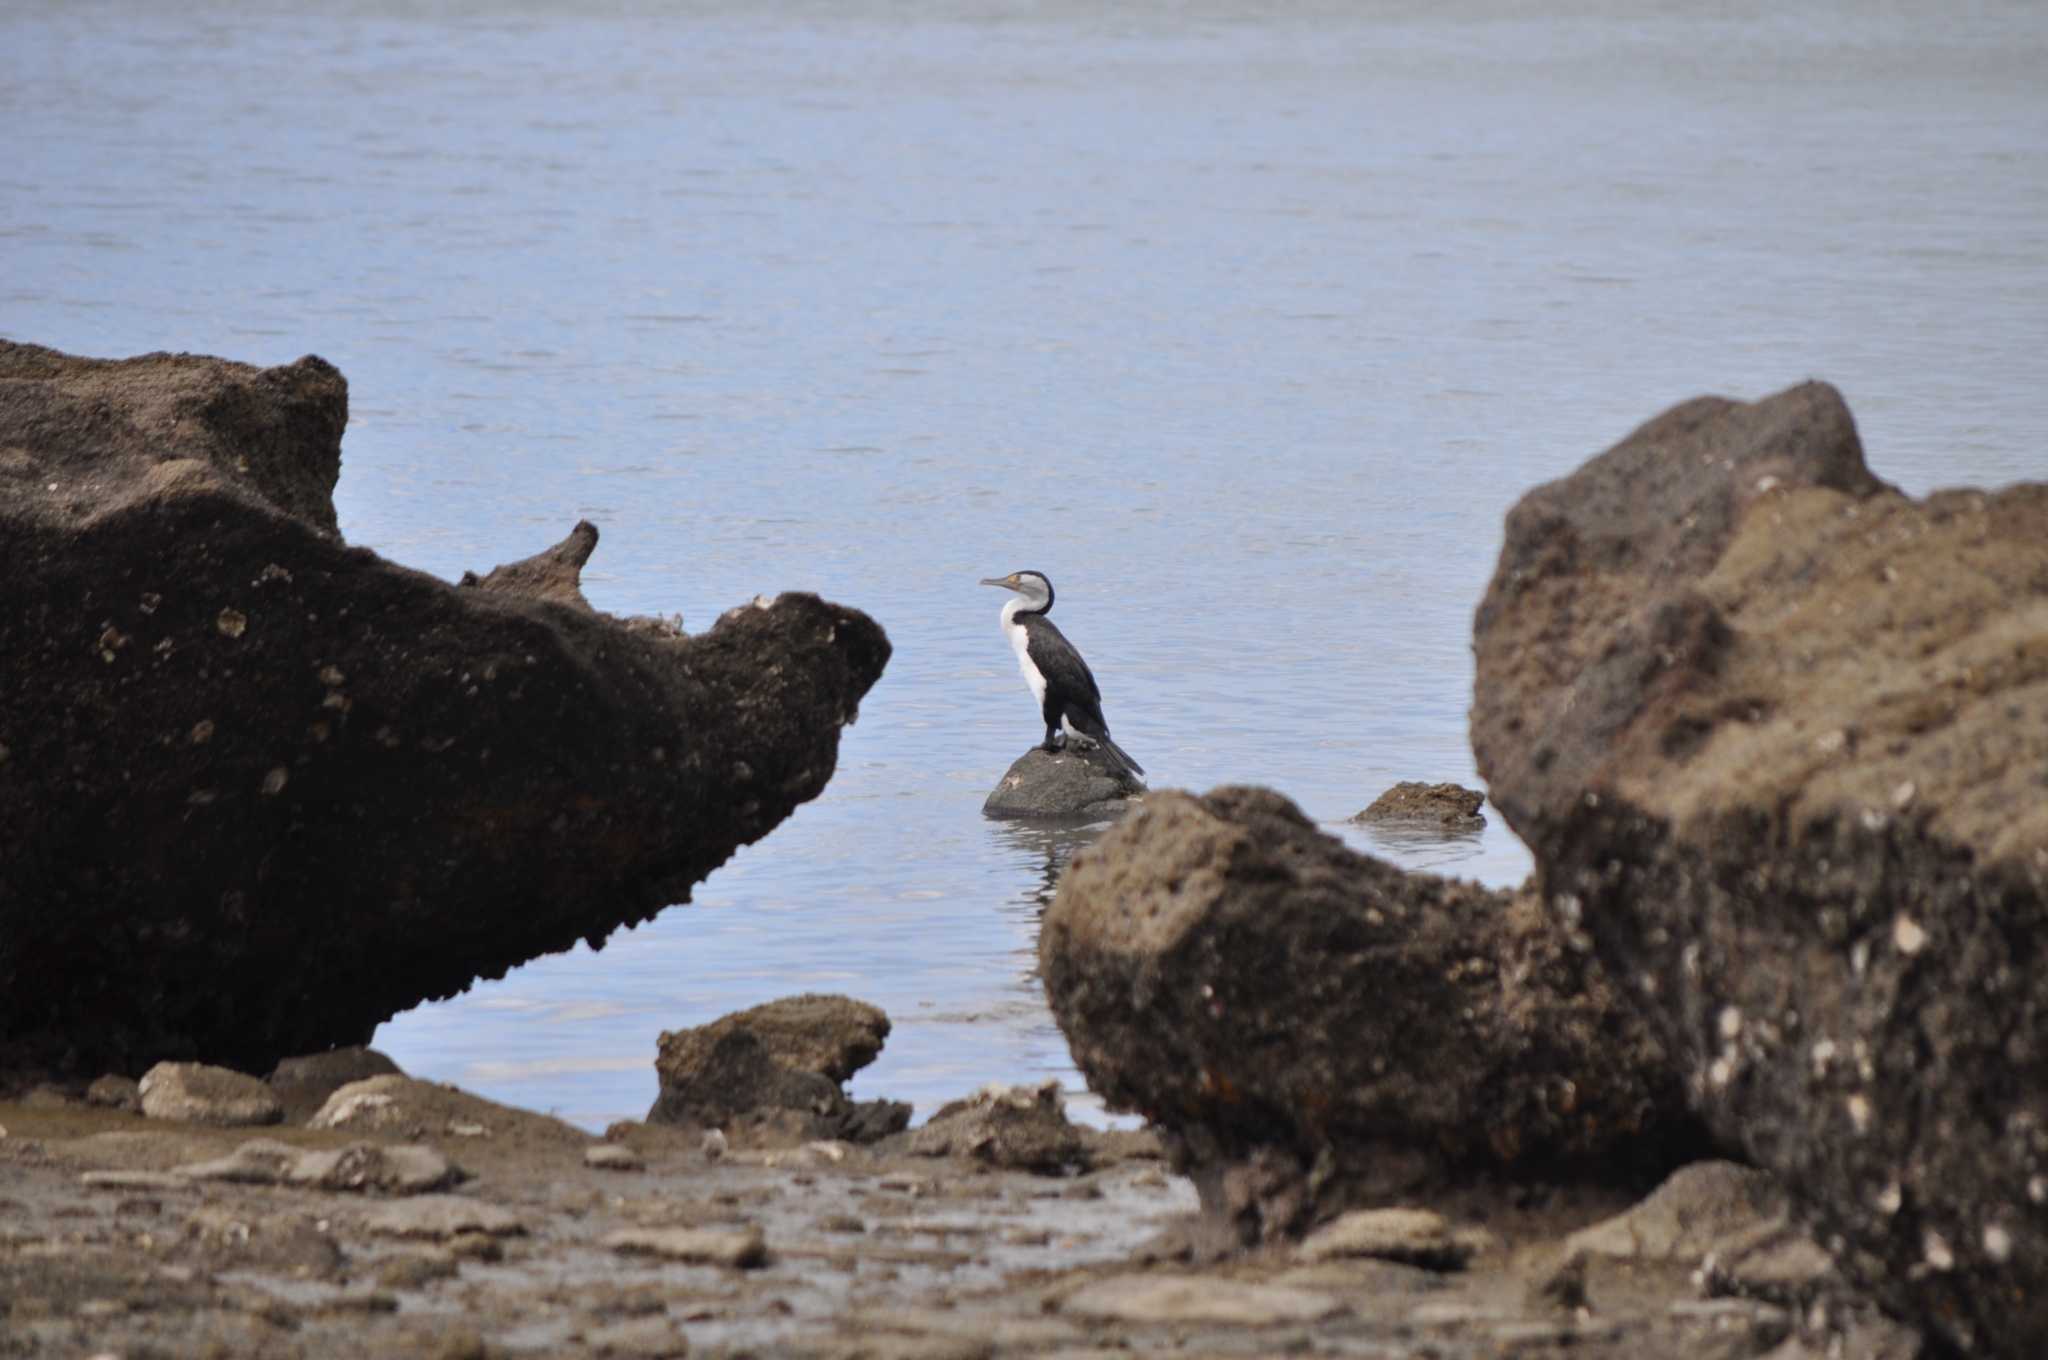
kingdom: Animalia
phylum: Chordata
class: Aves
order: Suliformes
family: Phalacrocoracidae
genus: Phalacrocorax
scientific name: Phalacrocorax varius
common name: Pied cormorant
